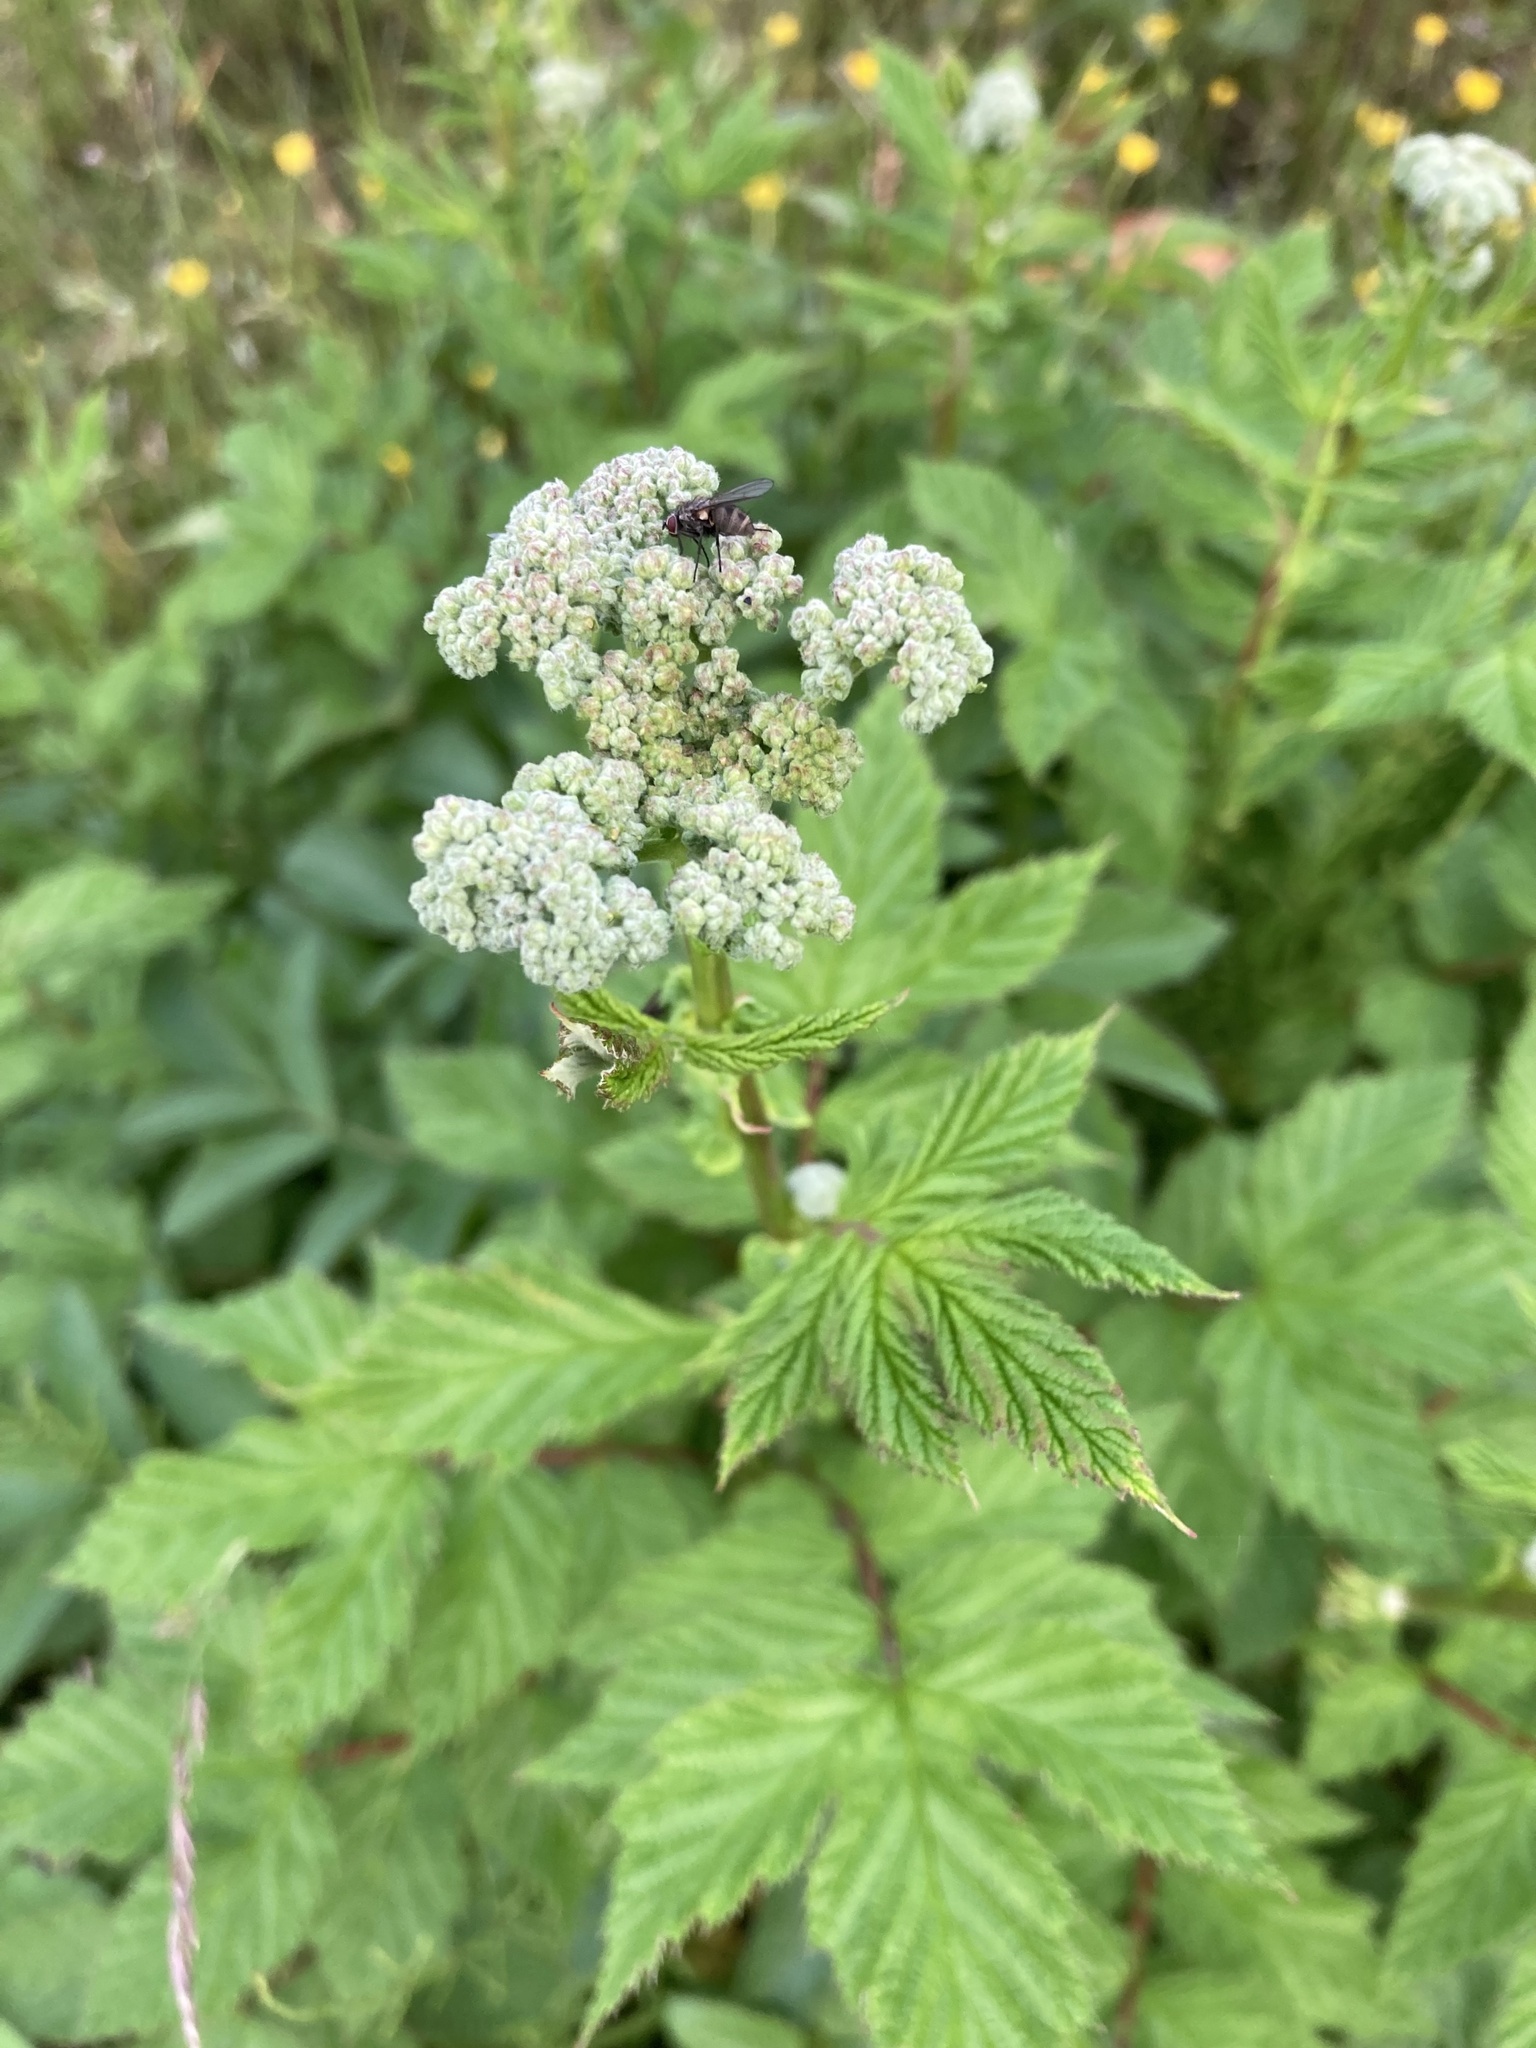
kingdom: Plantae
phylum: Tracheophyta
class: Magnoliopsida
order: Rosales
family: Rosaceae
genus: Filipendula
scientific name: Filipendula ulmaria
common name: Meadowsweet
